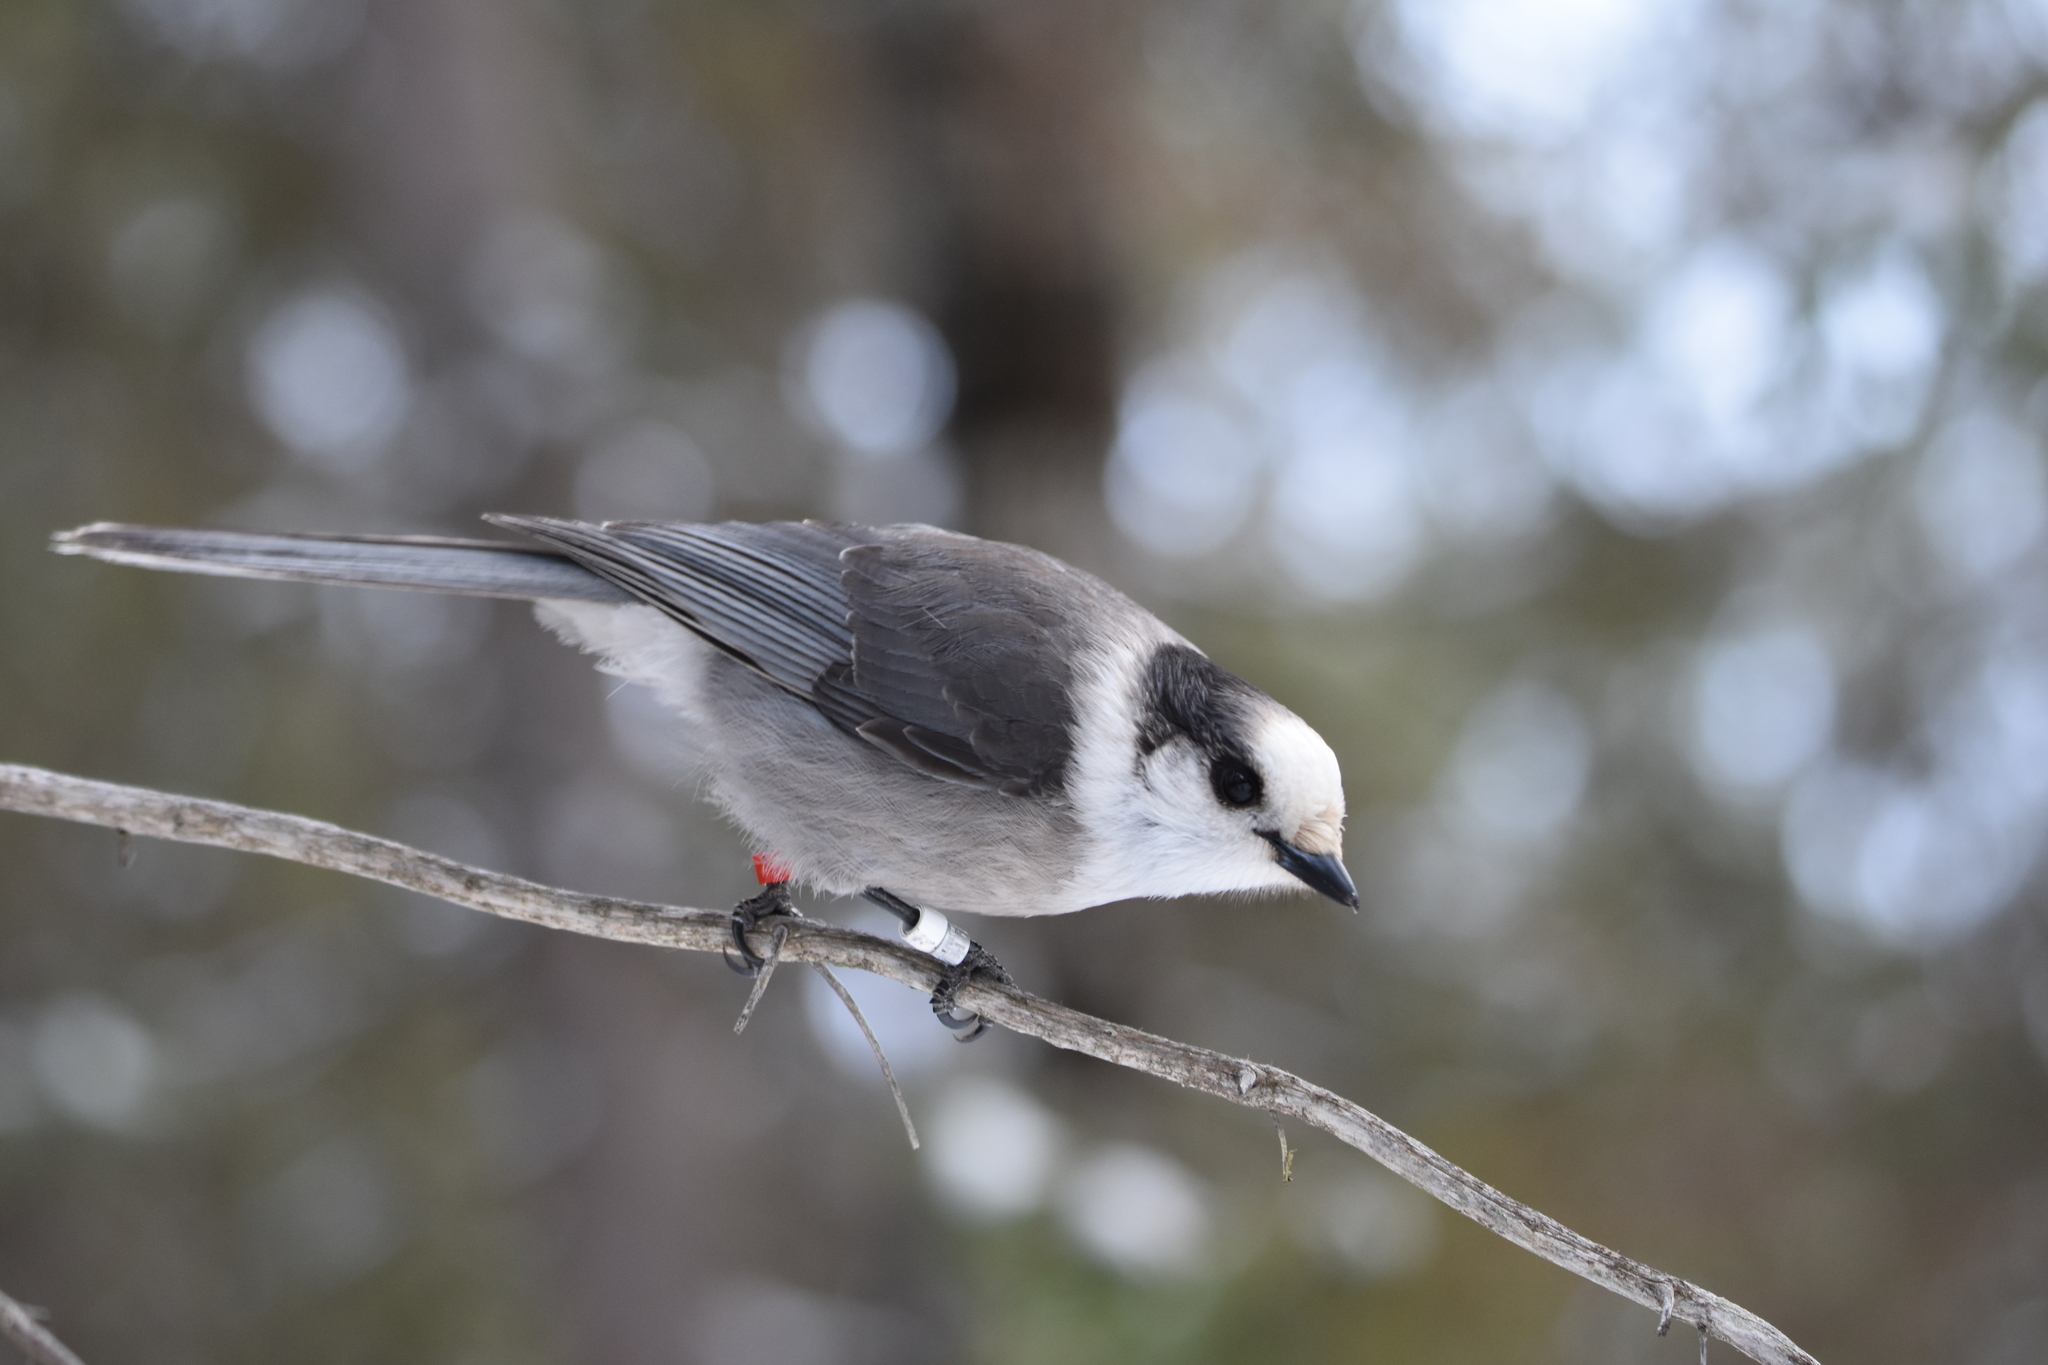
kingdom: Animalia
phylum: Chordata
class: Aves
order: Passeriformes
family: Corvidae
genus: Perisoreus
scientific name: Perisoreus canadensis
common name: Gray jay
